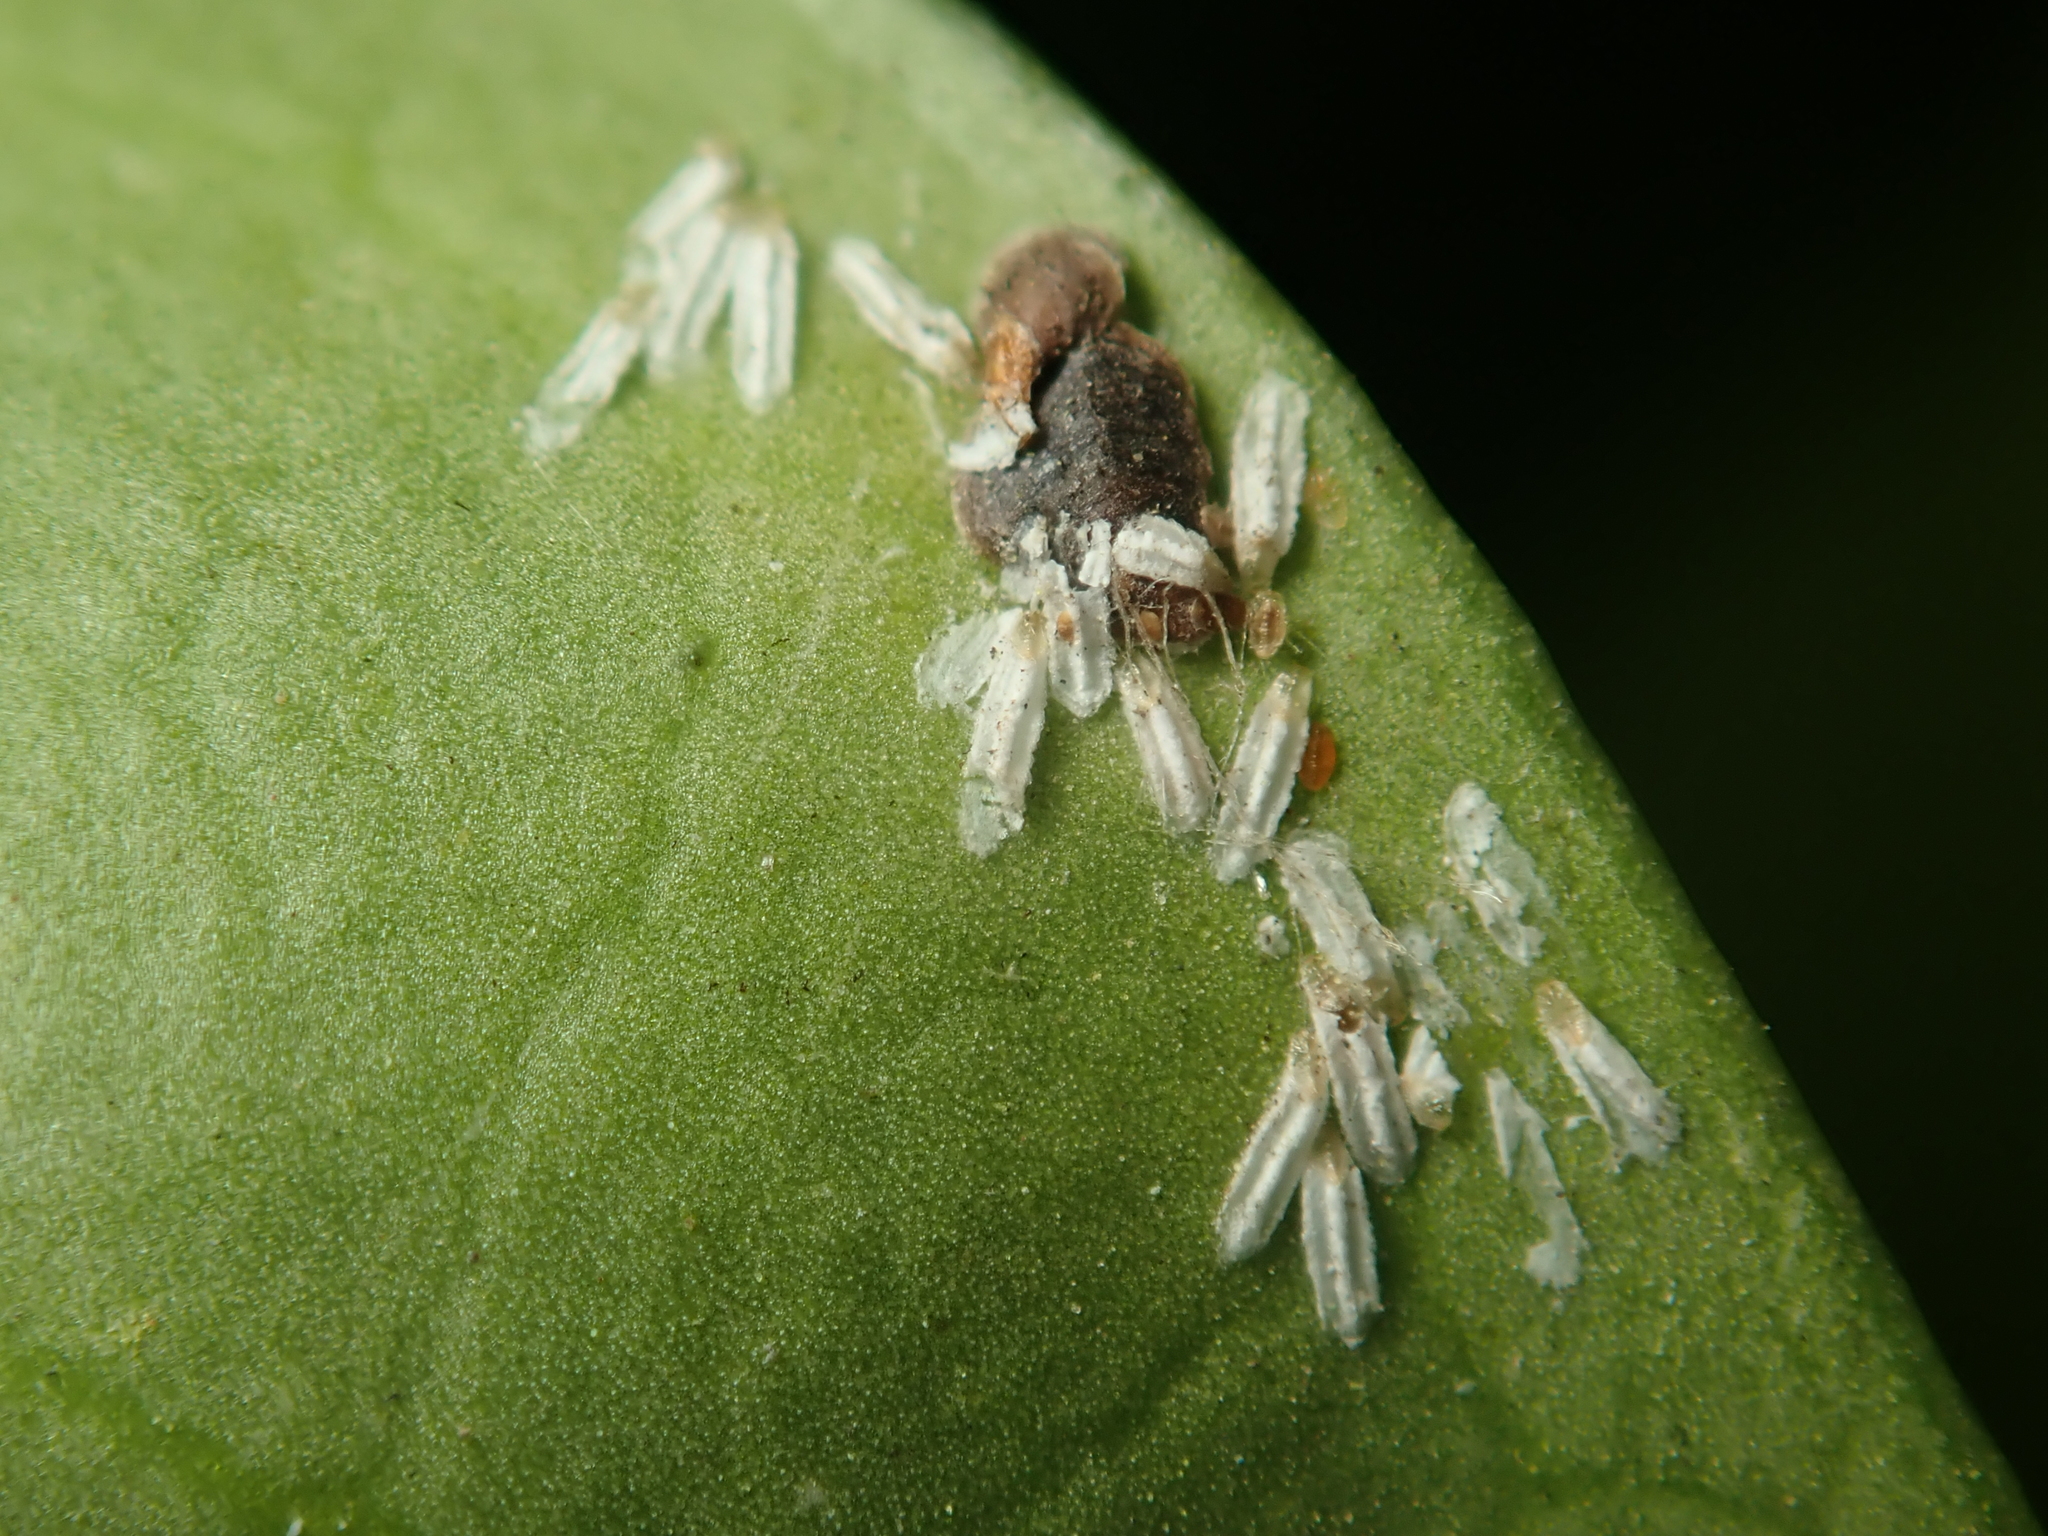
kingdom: Animalia
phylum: Arthropoda
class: Insecta
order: Hemiptera
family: Diaspididae
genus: Unaspis
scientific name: Unaspis euonymi
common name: Euonymus scale
